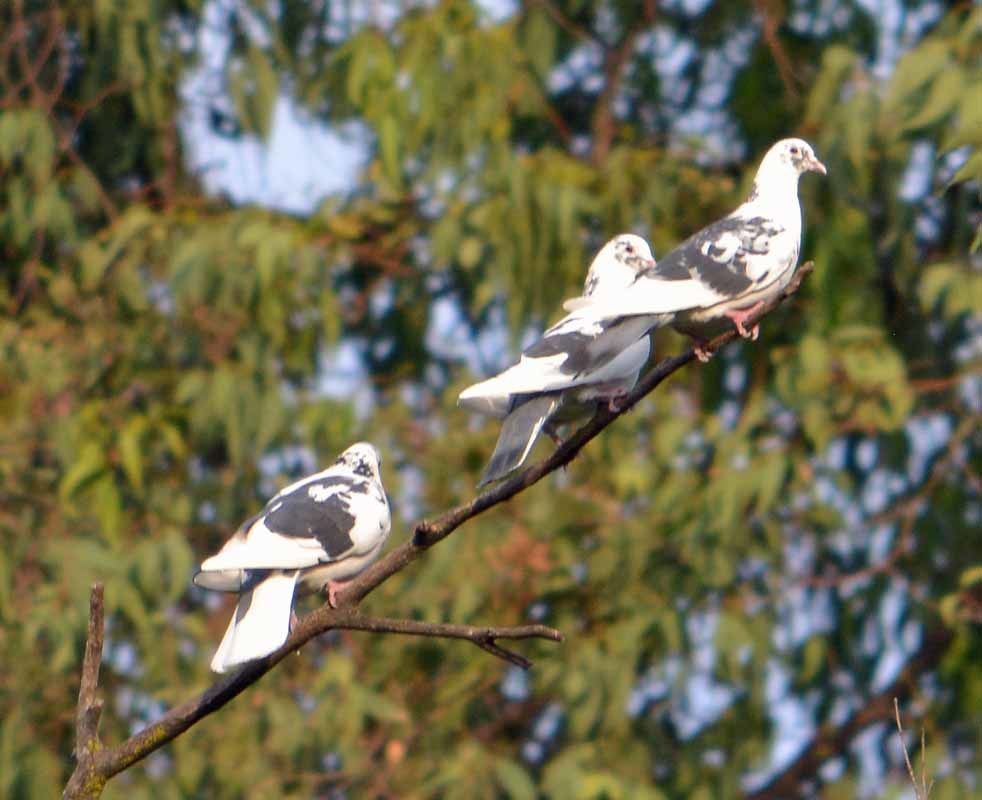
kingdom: Animalia
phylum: Chordata
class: Aves
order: Columbiformes
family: Columbidae
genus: Columba
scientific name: Columba livia
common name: Rock pigeon
